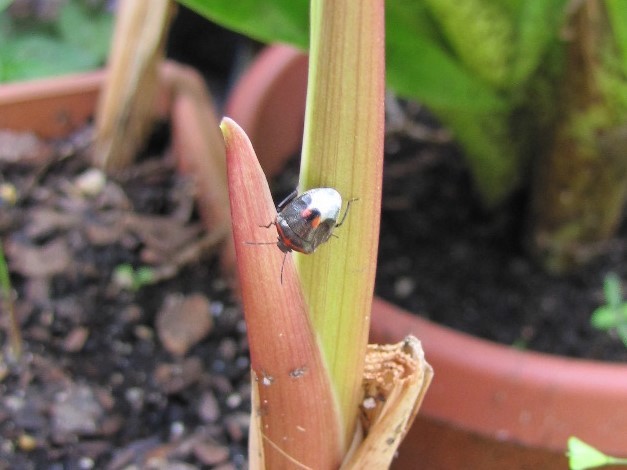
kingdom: Animalia
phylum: Arthropoda
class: Insecta
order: Hemiptera
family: Pentatomidae
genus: Cosmopepla
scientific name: Cosmopepla lintneriana
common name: Twice-stabbed stink bug
